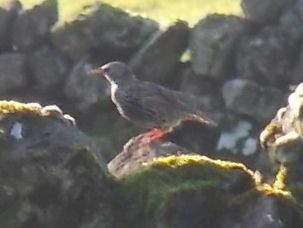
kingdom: Animalia
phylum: Chordata
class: Aves
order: Passeriformes
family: Sturnidae
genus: Sturnus
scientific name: Sturnus vulgaris
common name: Common starling
